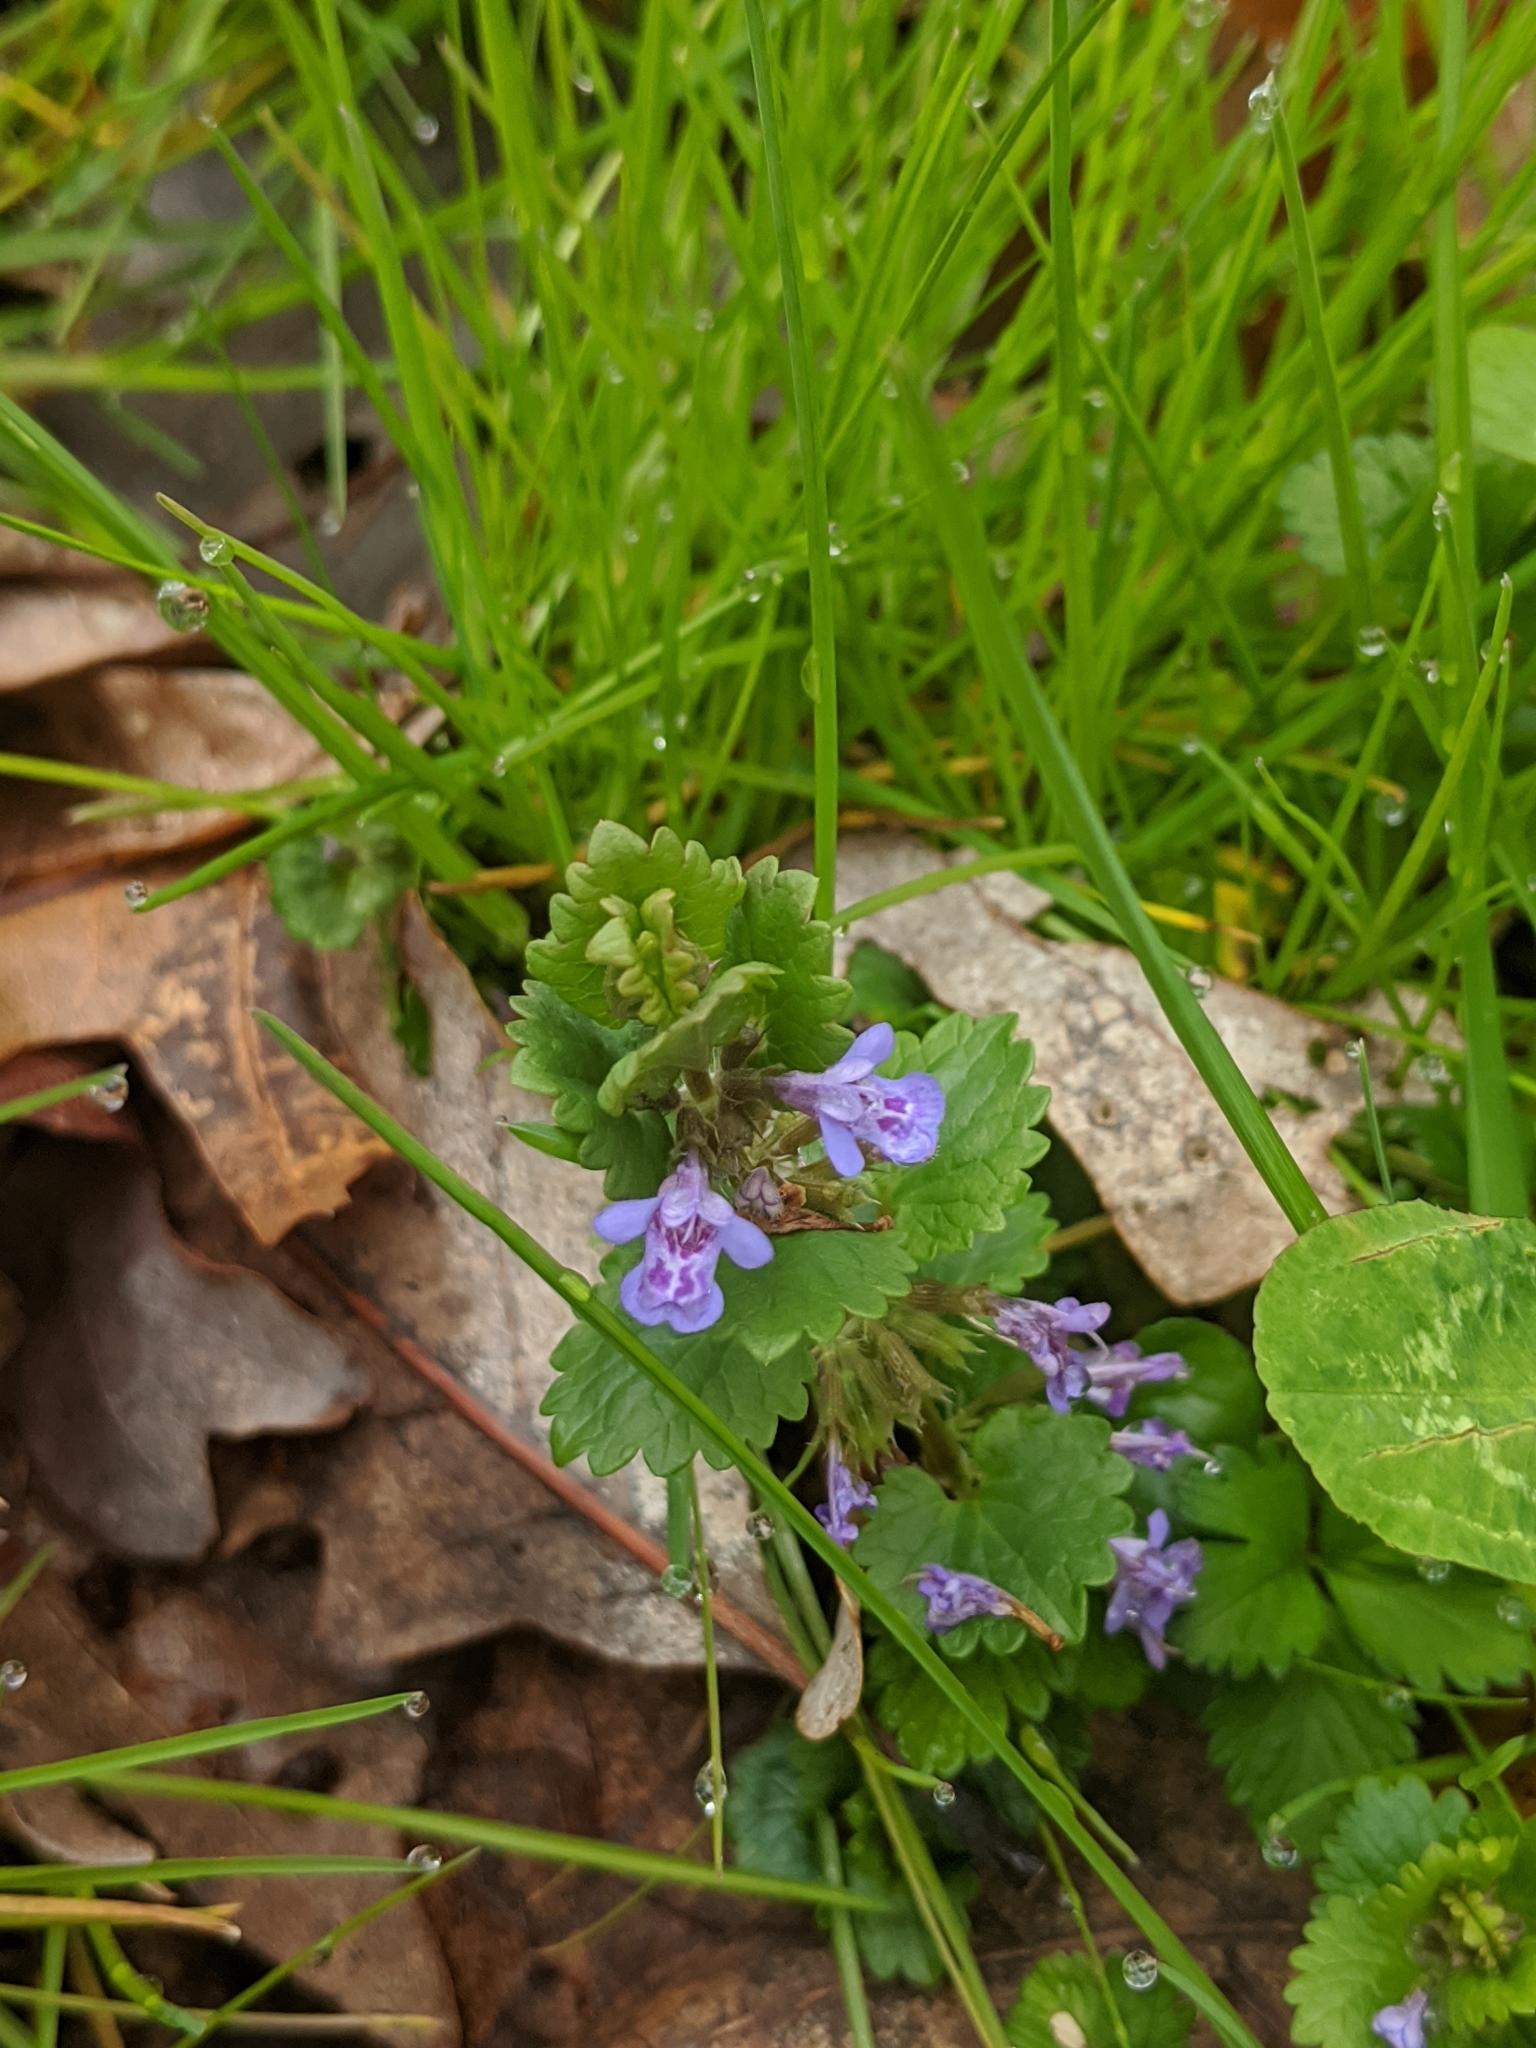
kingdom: Plantae
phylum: Tracheophyta
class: Magnoliopsida
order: Lamiales
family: Lamiaceae
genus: Glechoma
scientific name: Glechoma hederacea
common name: Ground ivy
